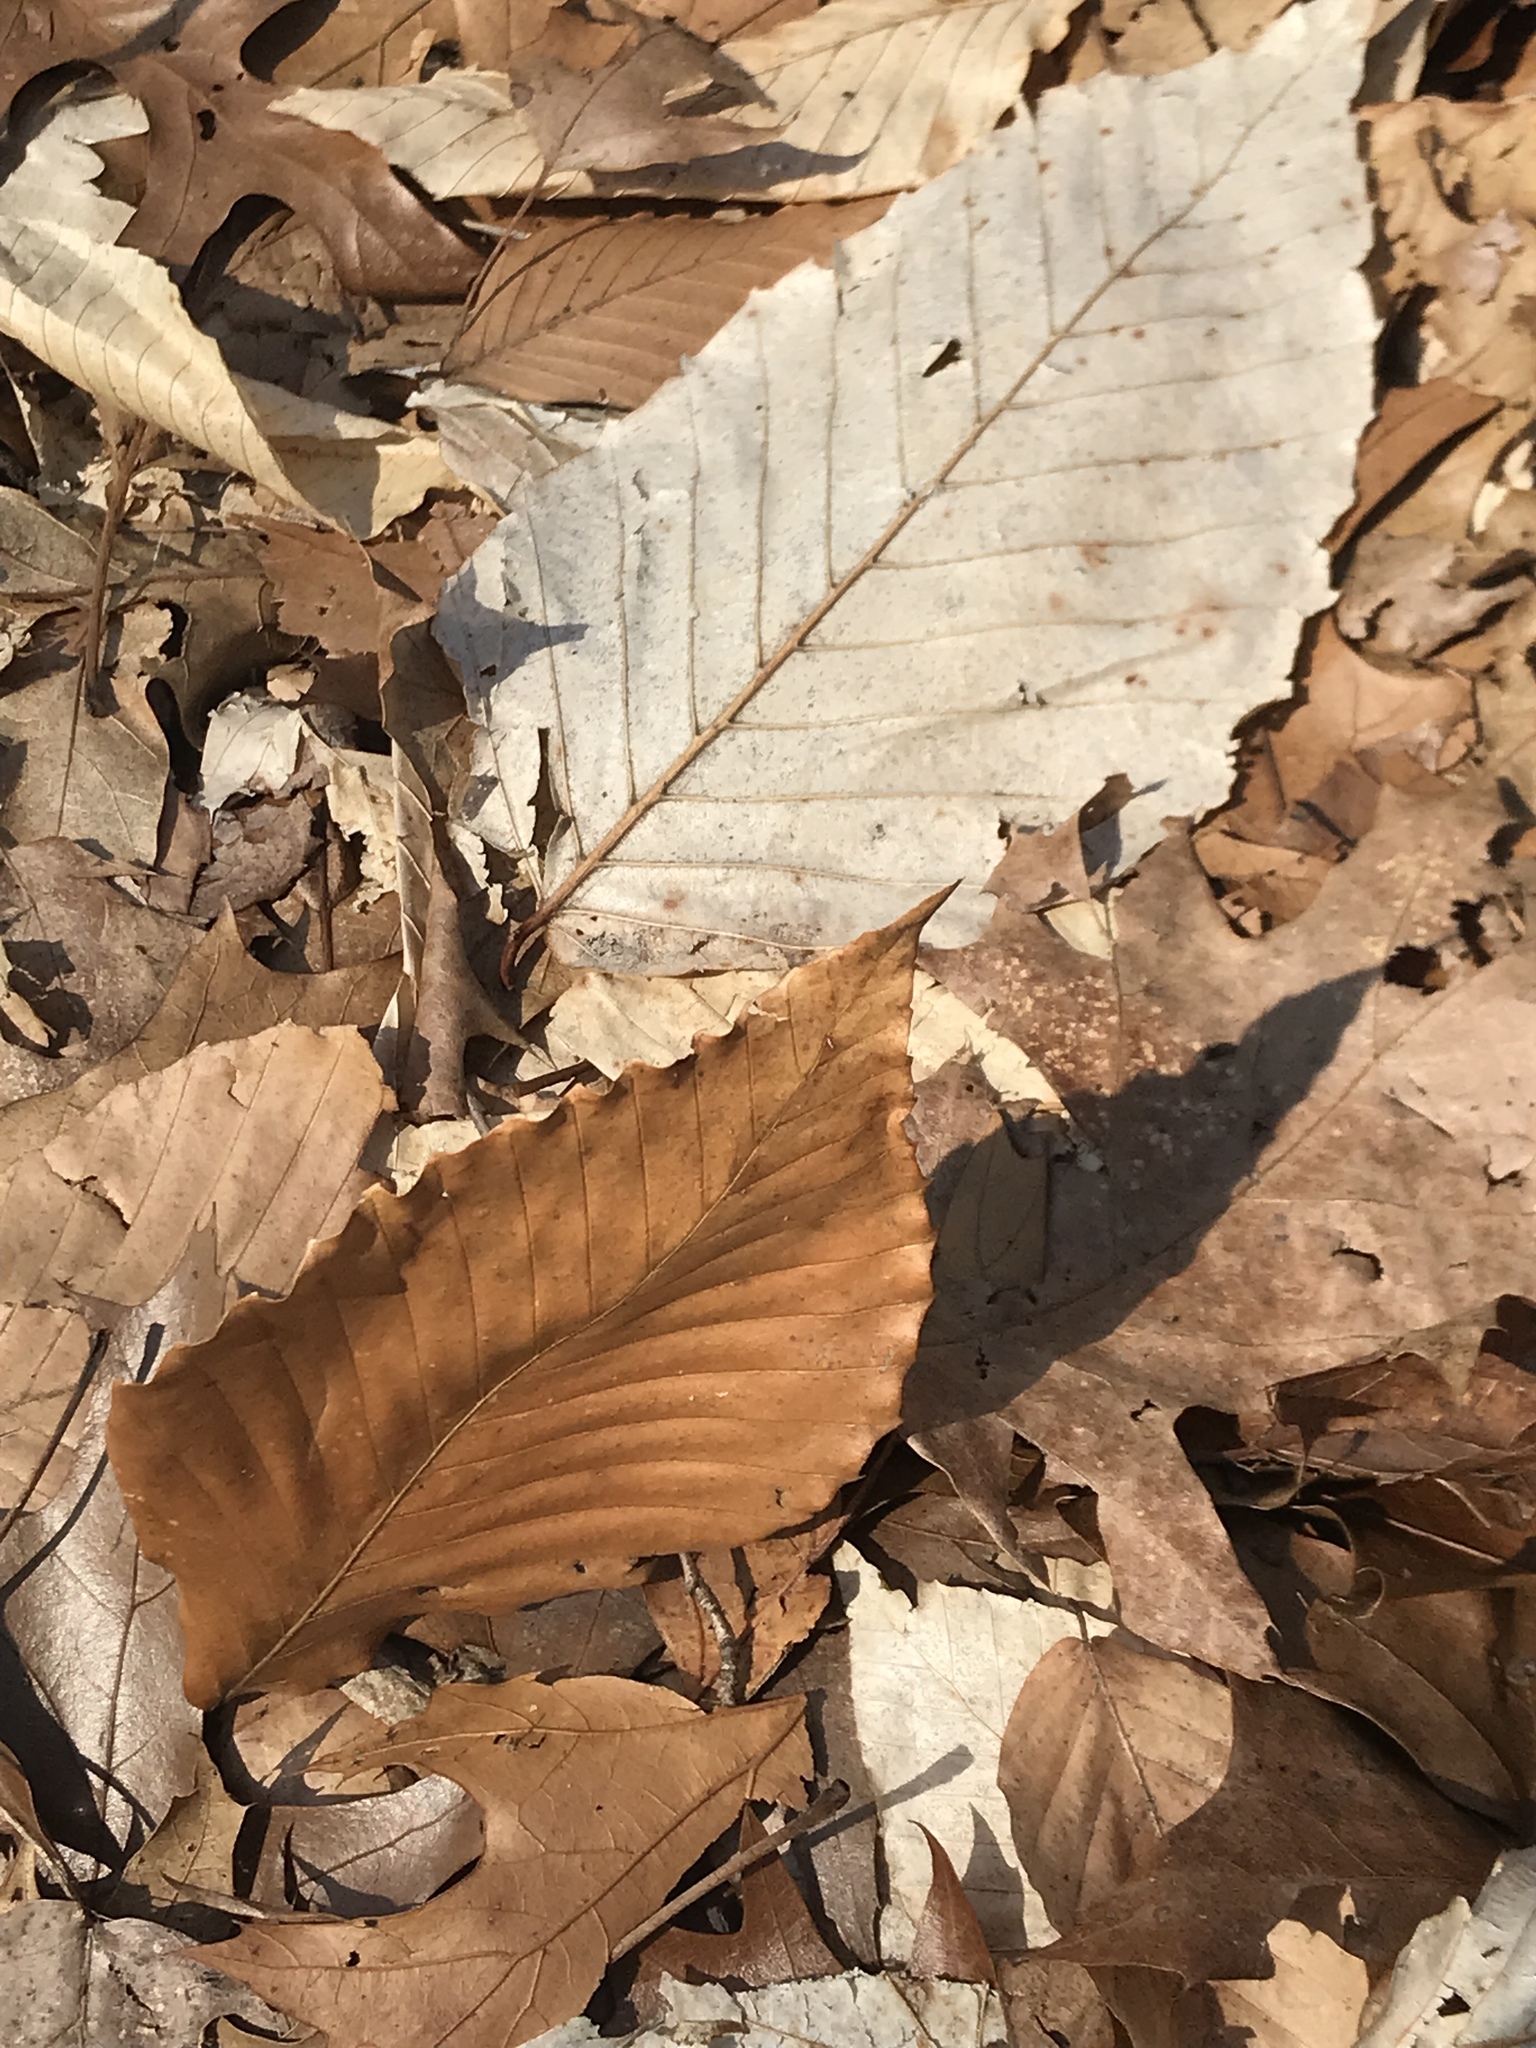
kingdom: Plantae
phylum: Tracheophyta
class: Magnoliopsida
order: Fagales
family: Fagaceae
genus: Fagus
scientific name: Fagus grandifolia
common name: American beech
